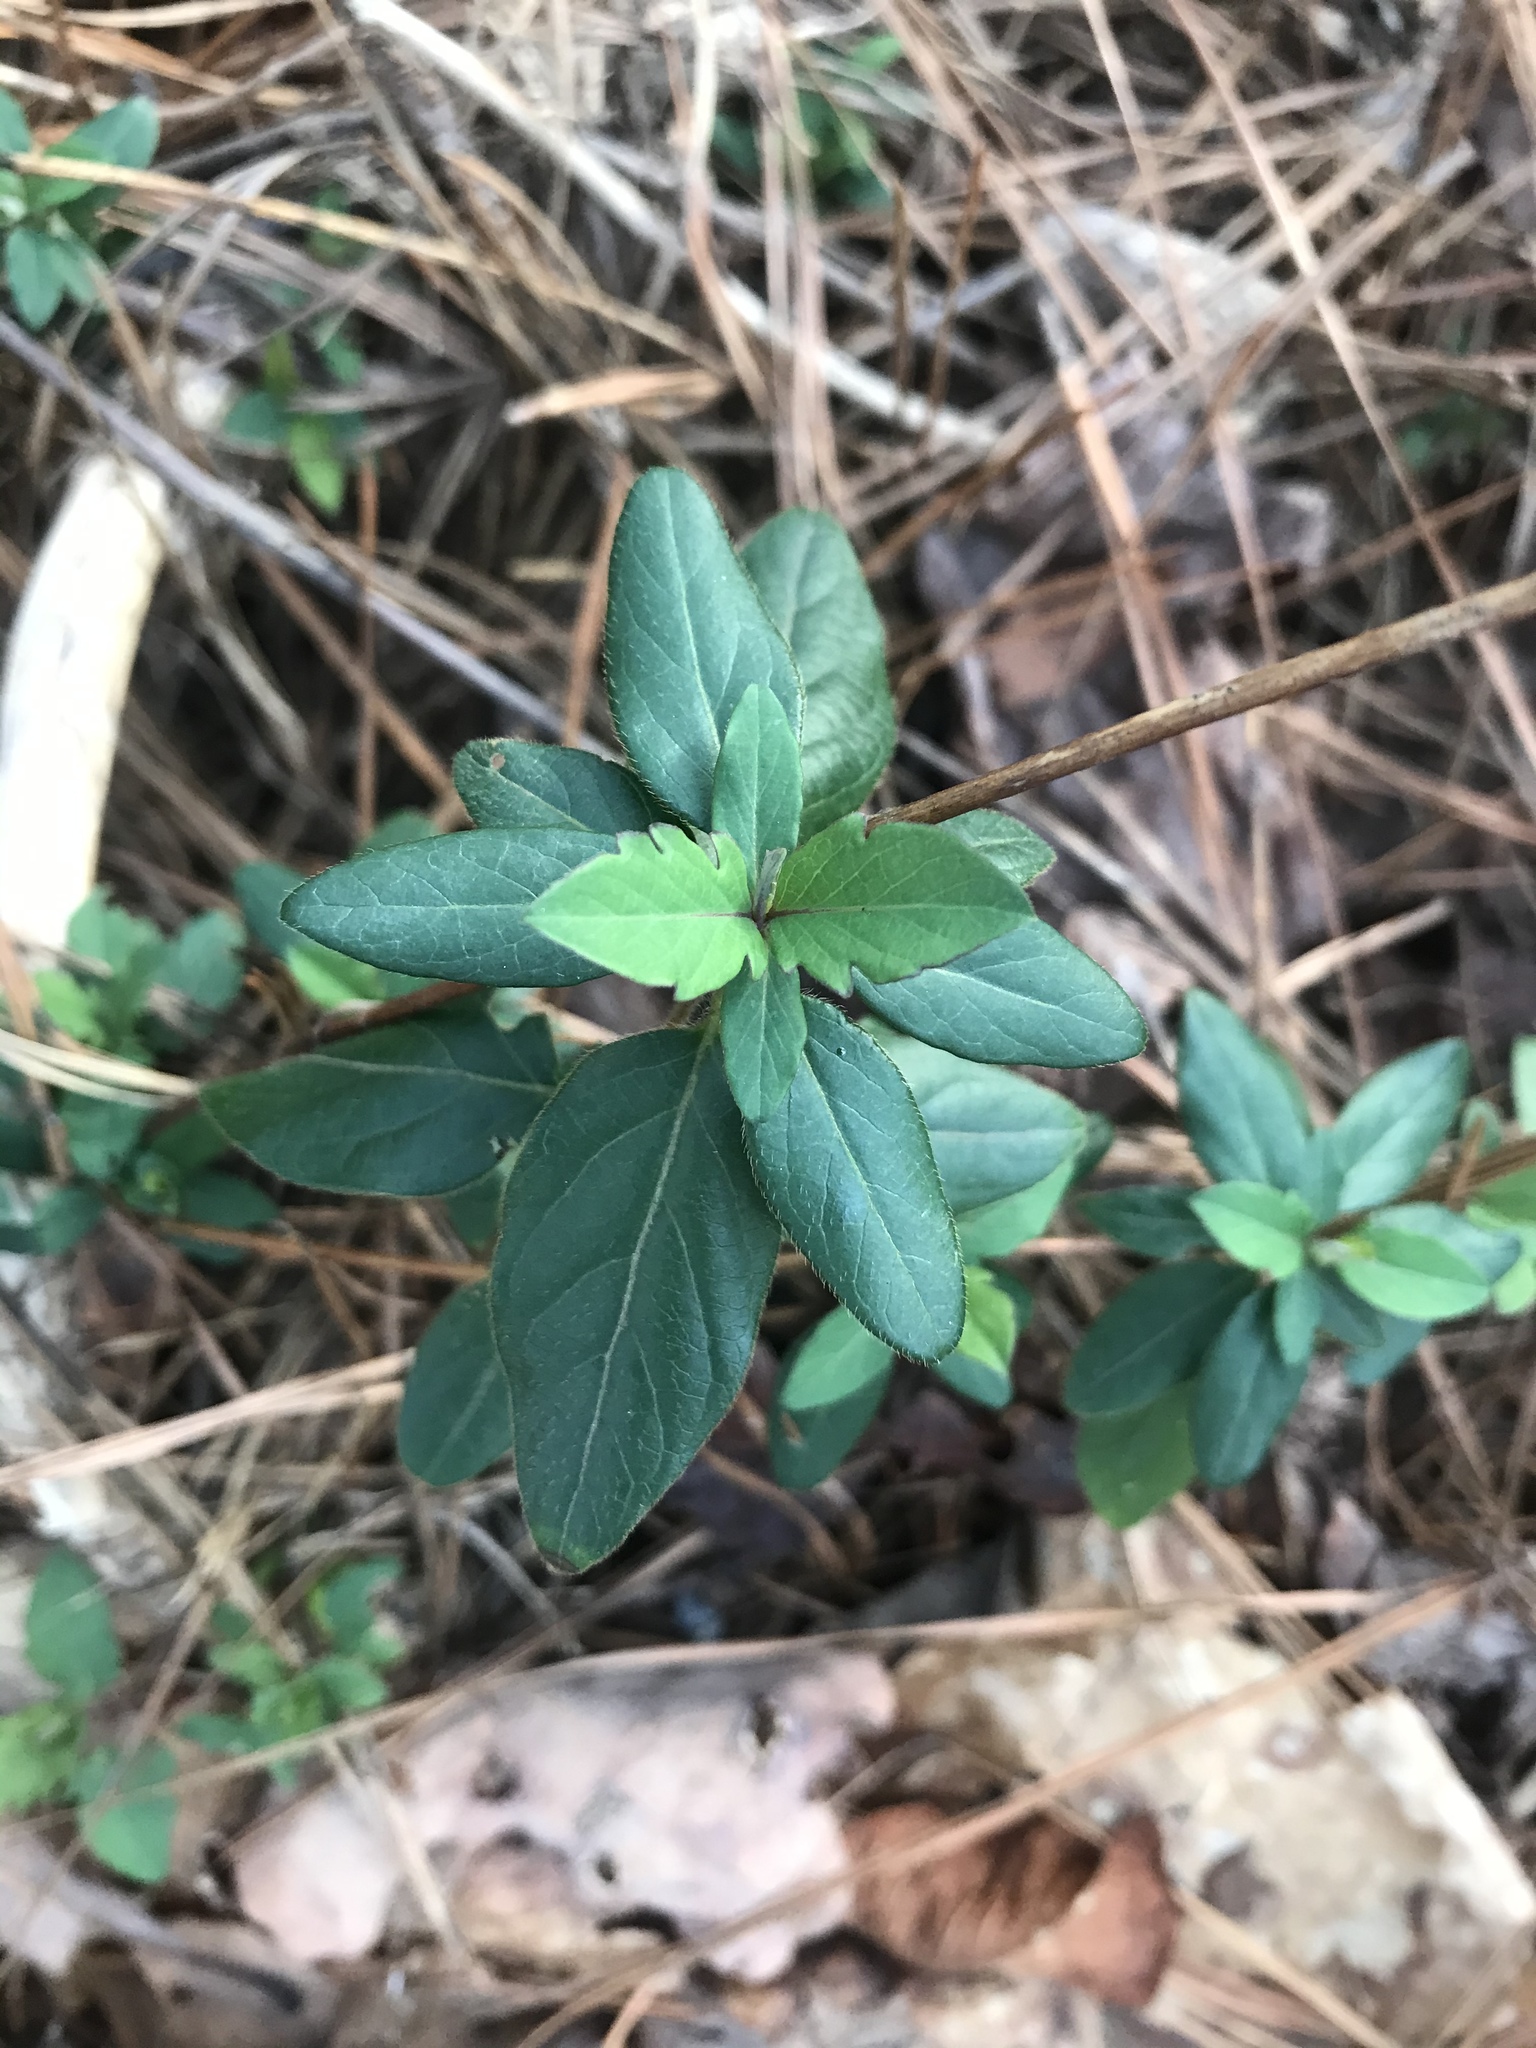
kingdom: Plantae
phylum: Tracheophyta
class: Magnoliopsida
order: Dipsacales
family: Caprifoliaceae
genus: Lonicera
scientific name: Lonicera japonica
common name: Japanese honeysuckle
